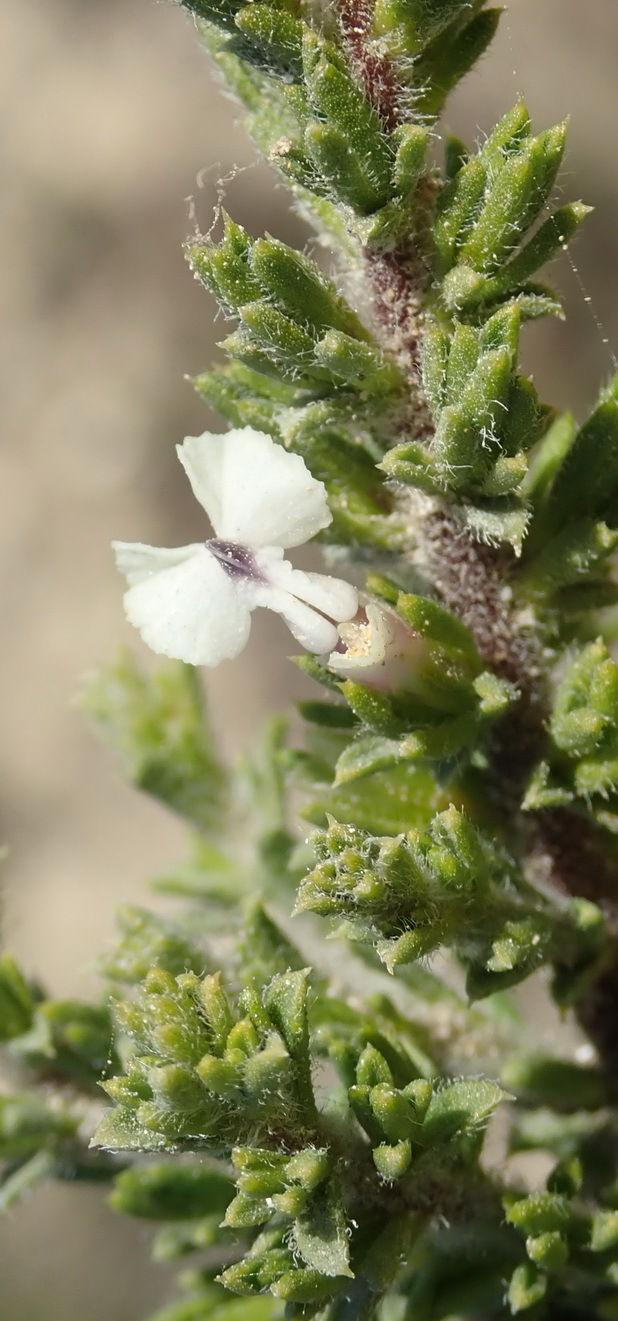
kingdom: Plantae
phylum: Tracheophyta
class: Magnoliopsida
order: Fabales
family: Polygalaceae
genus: Muraltia
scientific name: Muraltia pappeana
